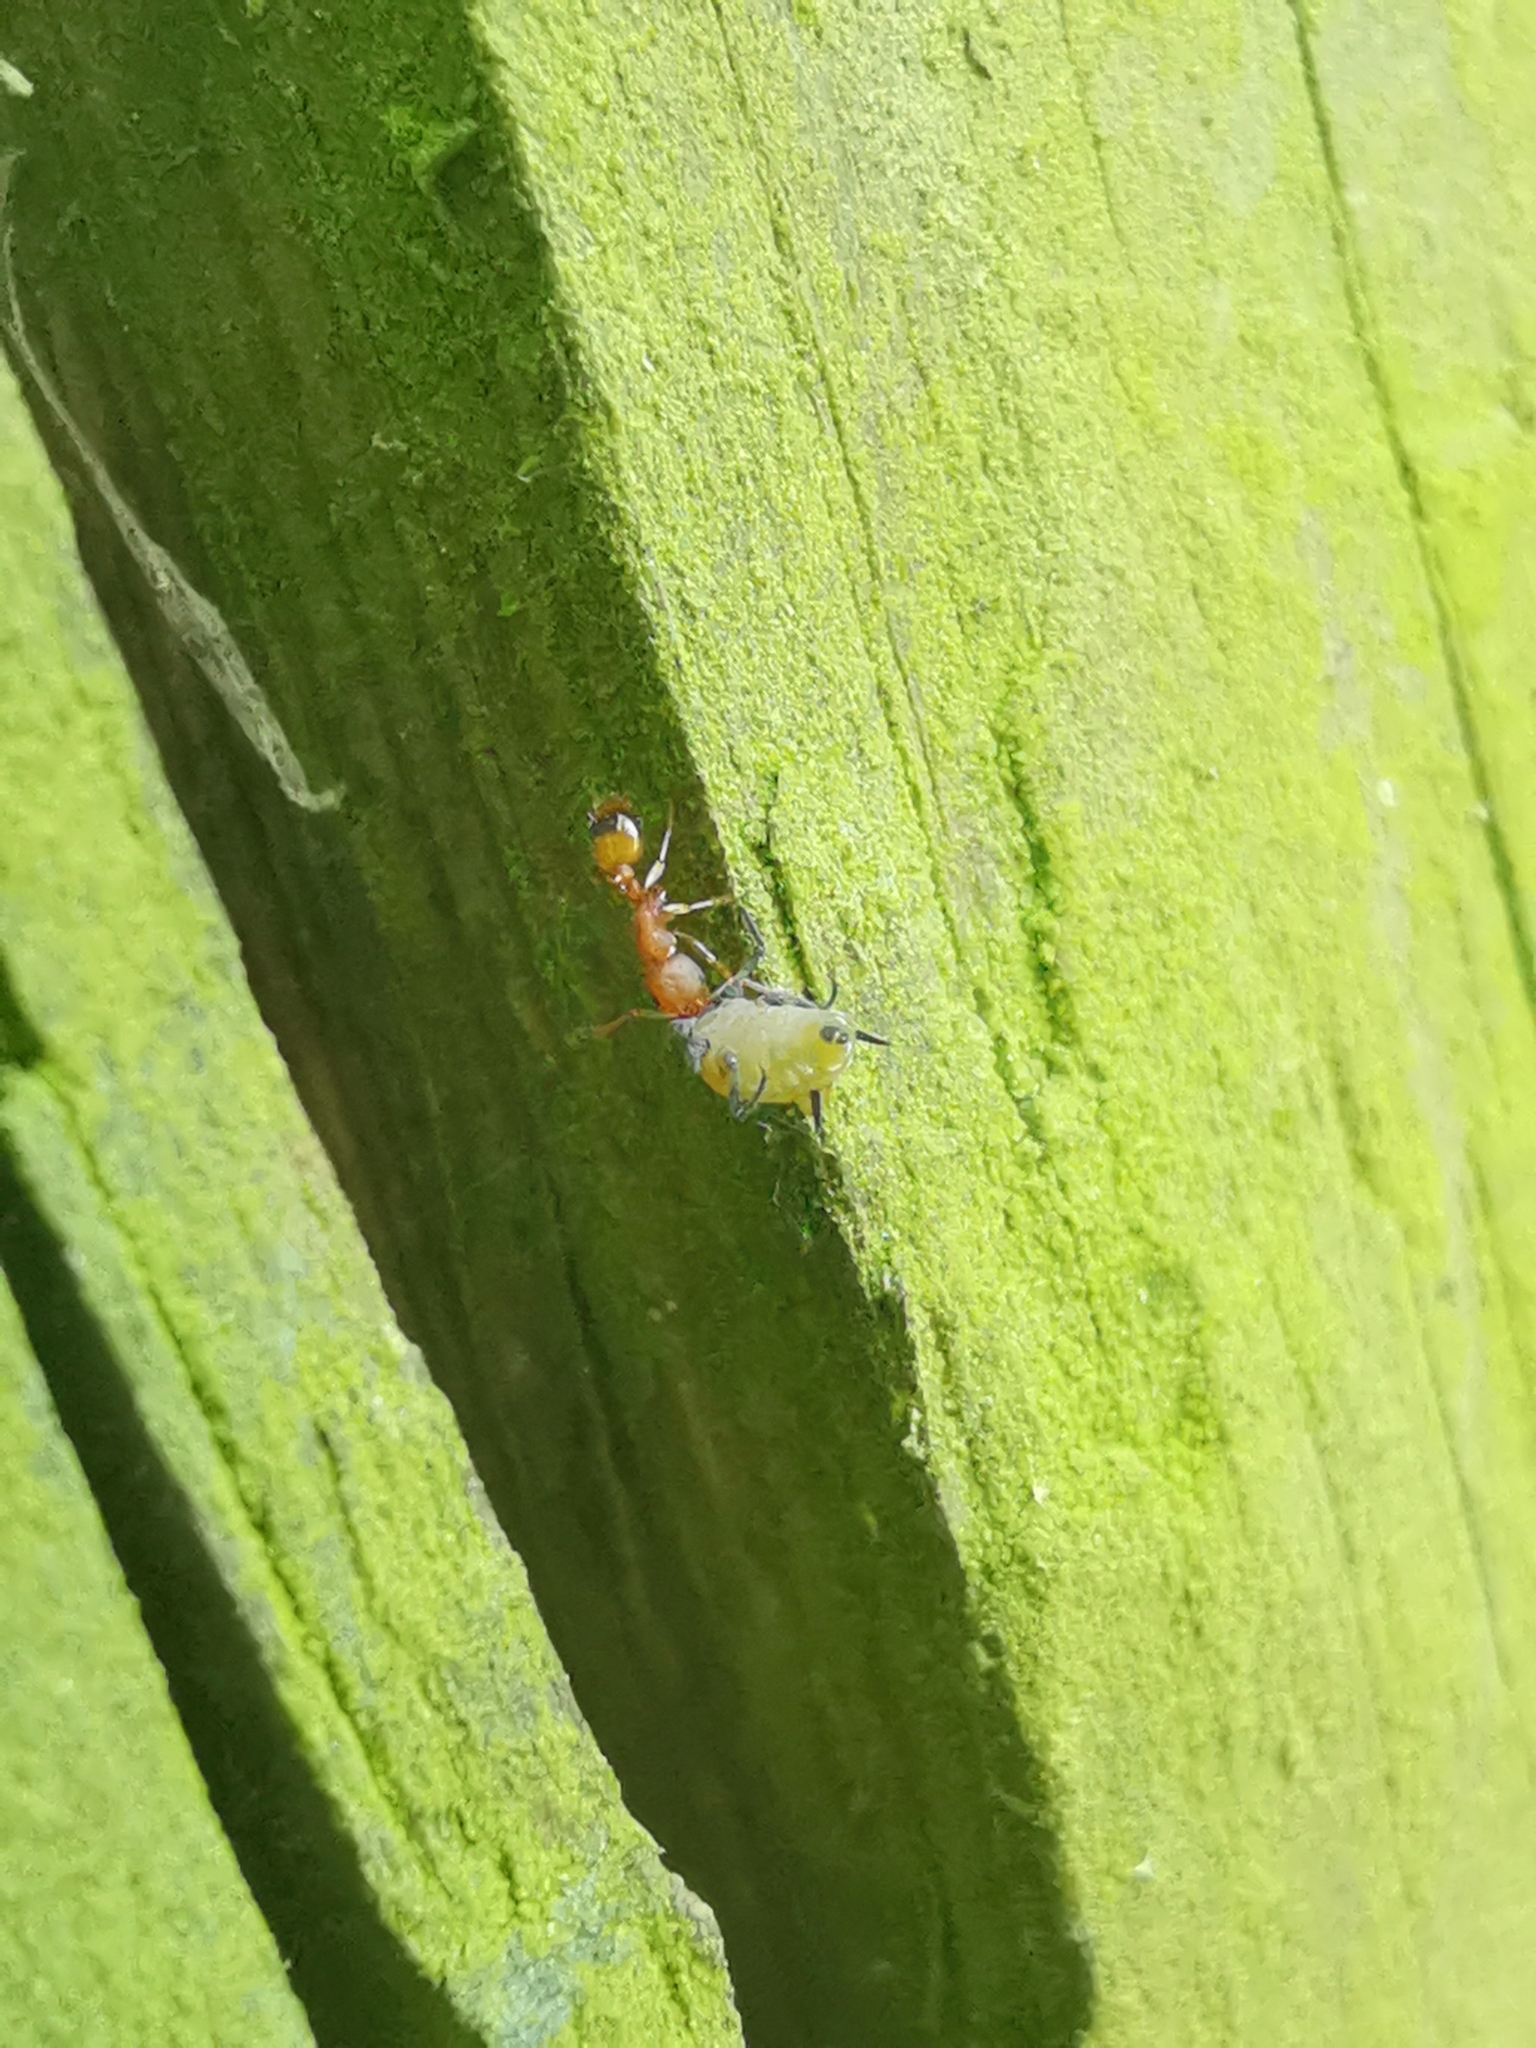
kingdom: Animalia
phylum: Arthropoda
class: Insecta
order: Hymenoptera
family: Formicidae
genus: Leptothorax
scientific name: Leptothorax unifasciatus
